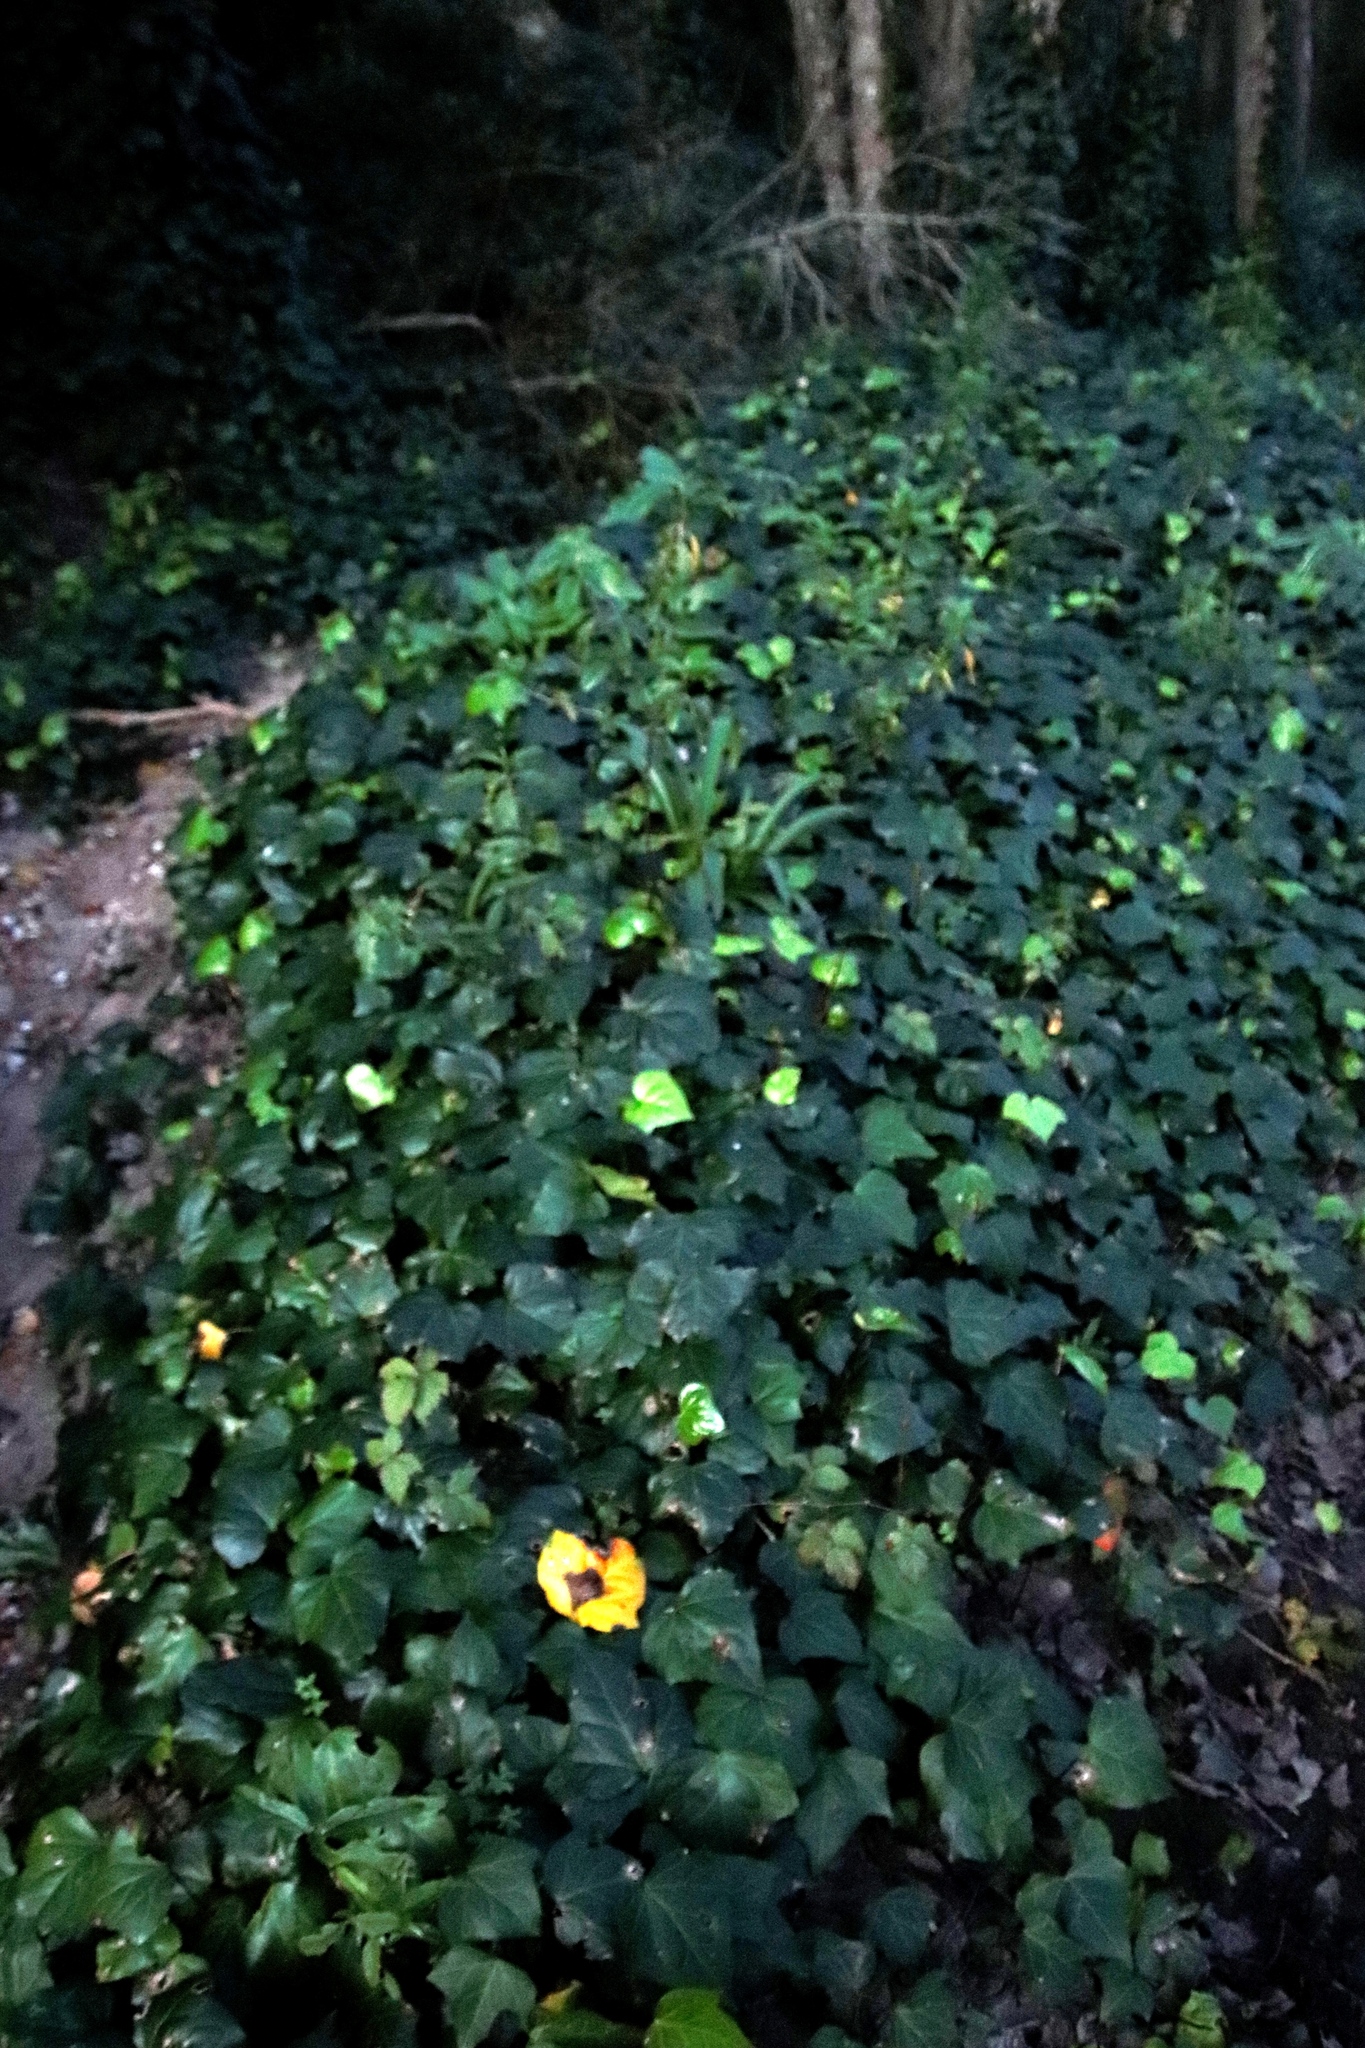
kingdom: Plantae
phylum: Tracheophyta
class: Magnoliopsida
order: Apiales
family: Araliaceae
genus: Hedera
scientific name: Hedera helix
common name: Ivy
